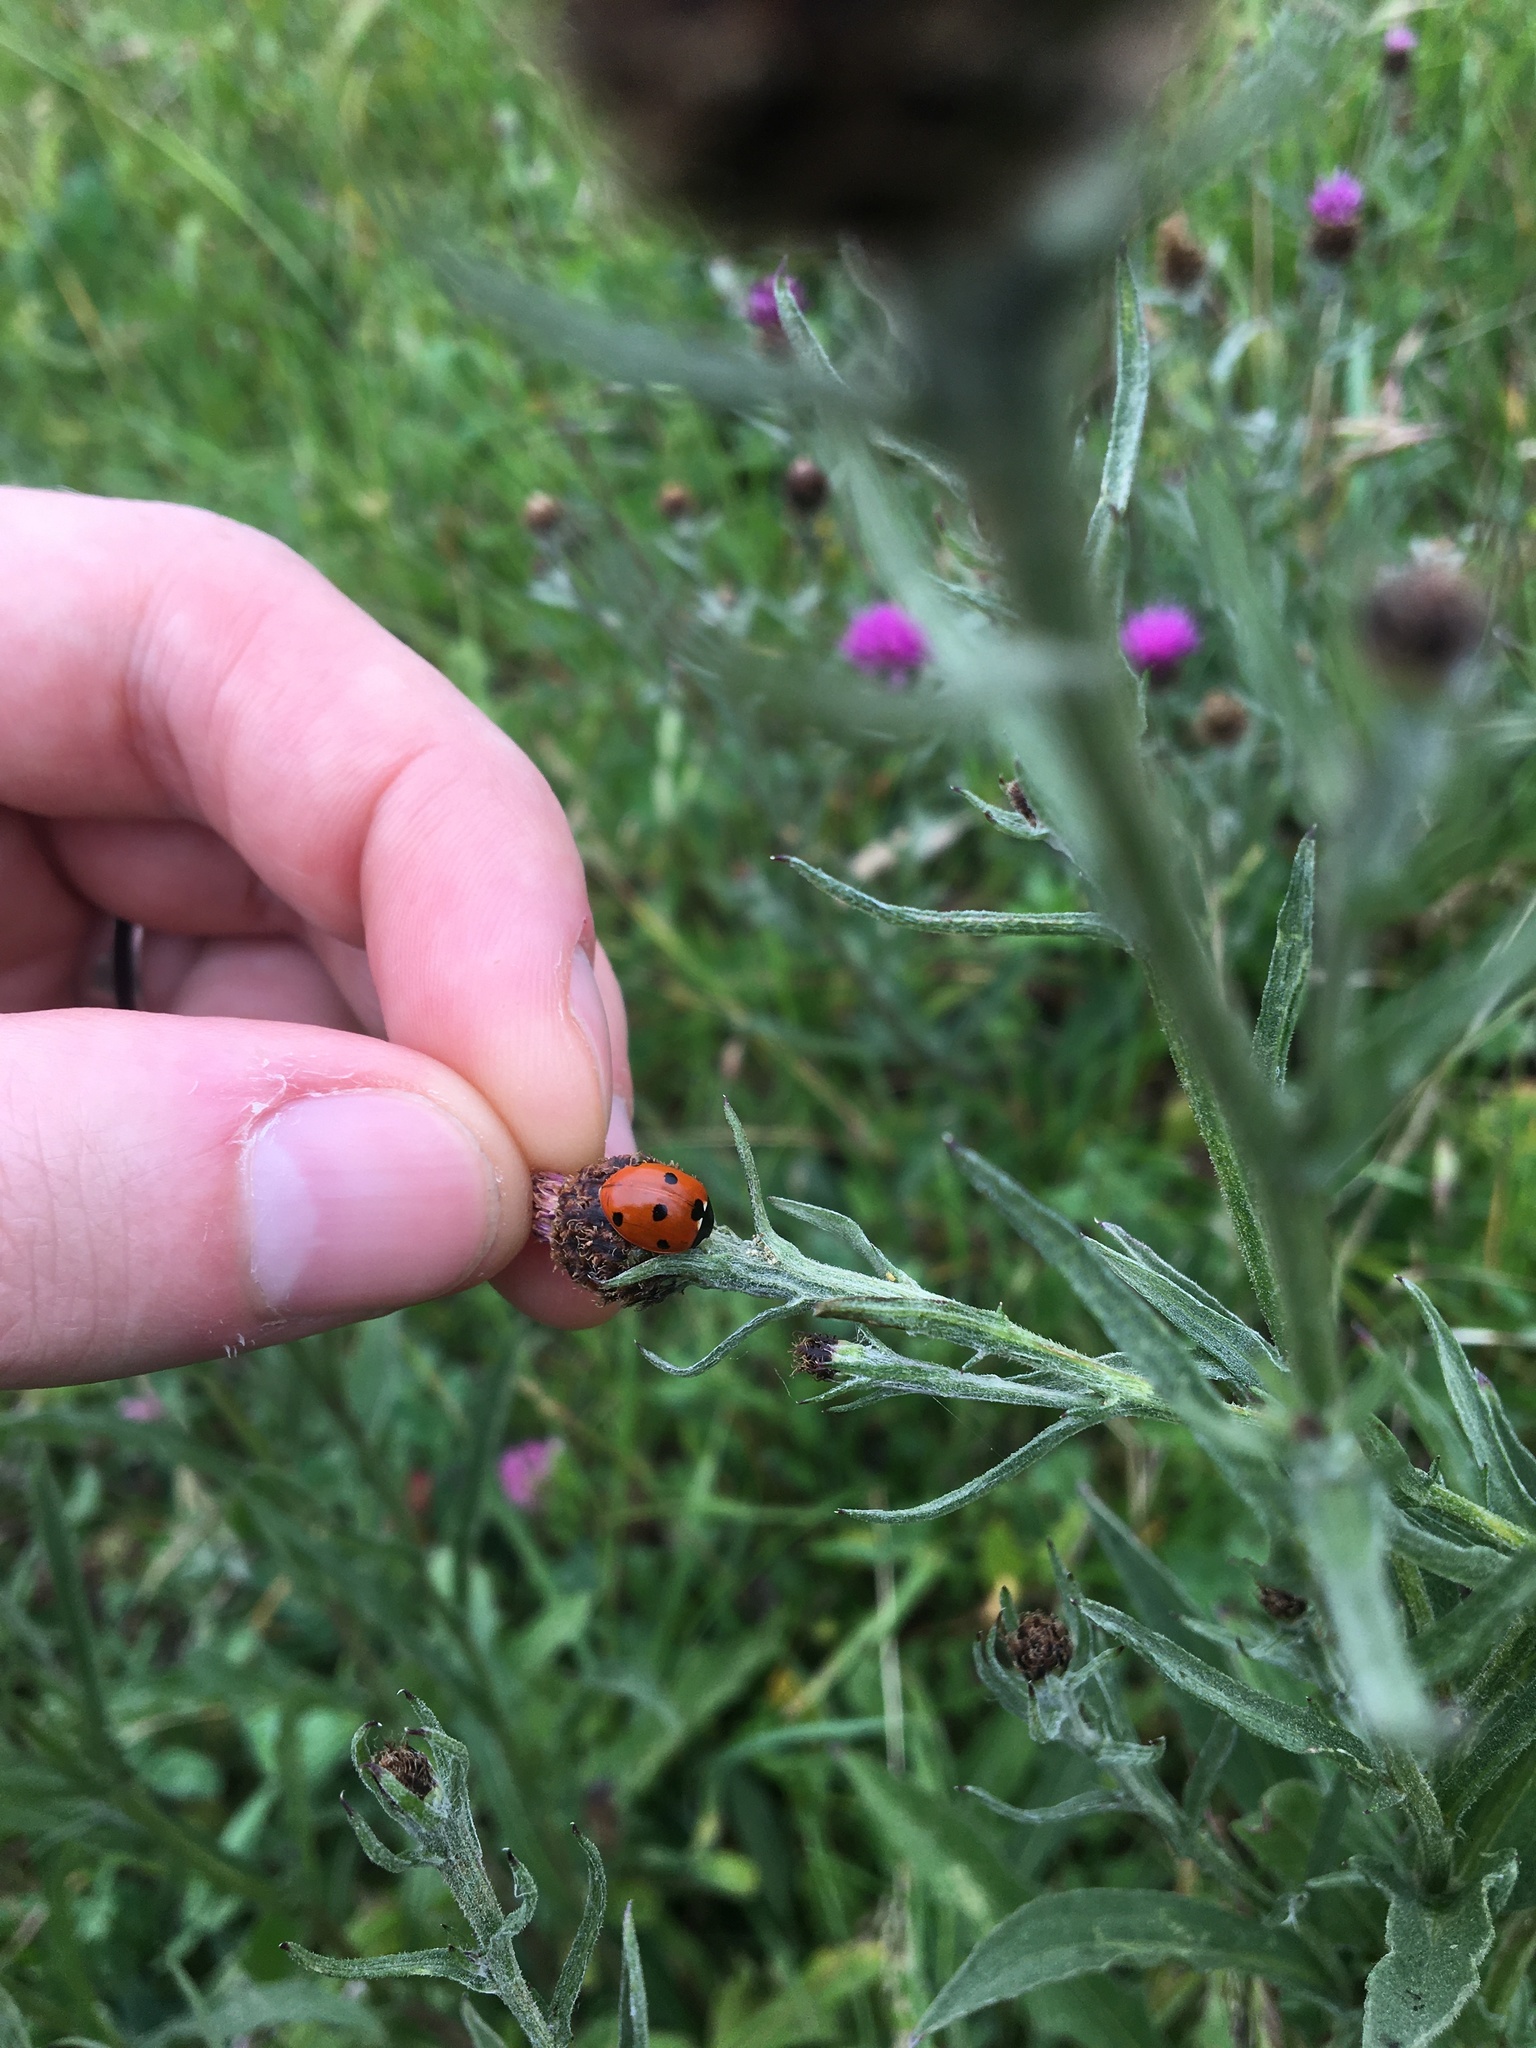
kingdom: Animalia
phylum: Arthropoda
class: Insecta
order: Coleoptera
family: Coccinellidae
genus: Coccinella
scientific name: Coccinella septempunctata
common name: Sevenspotted lady beetle
